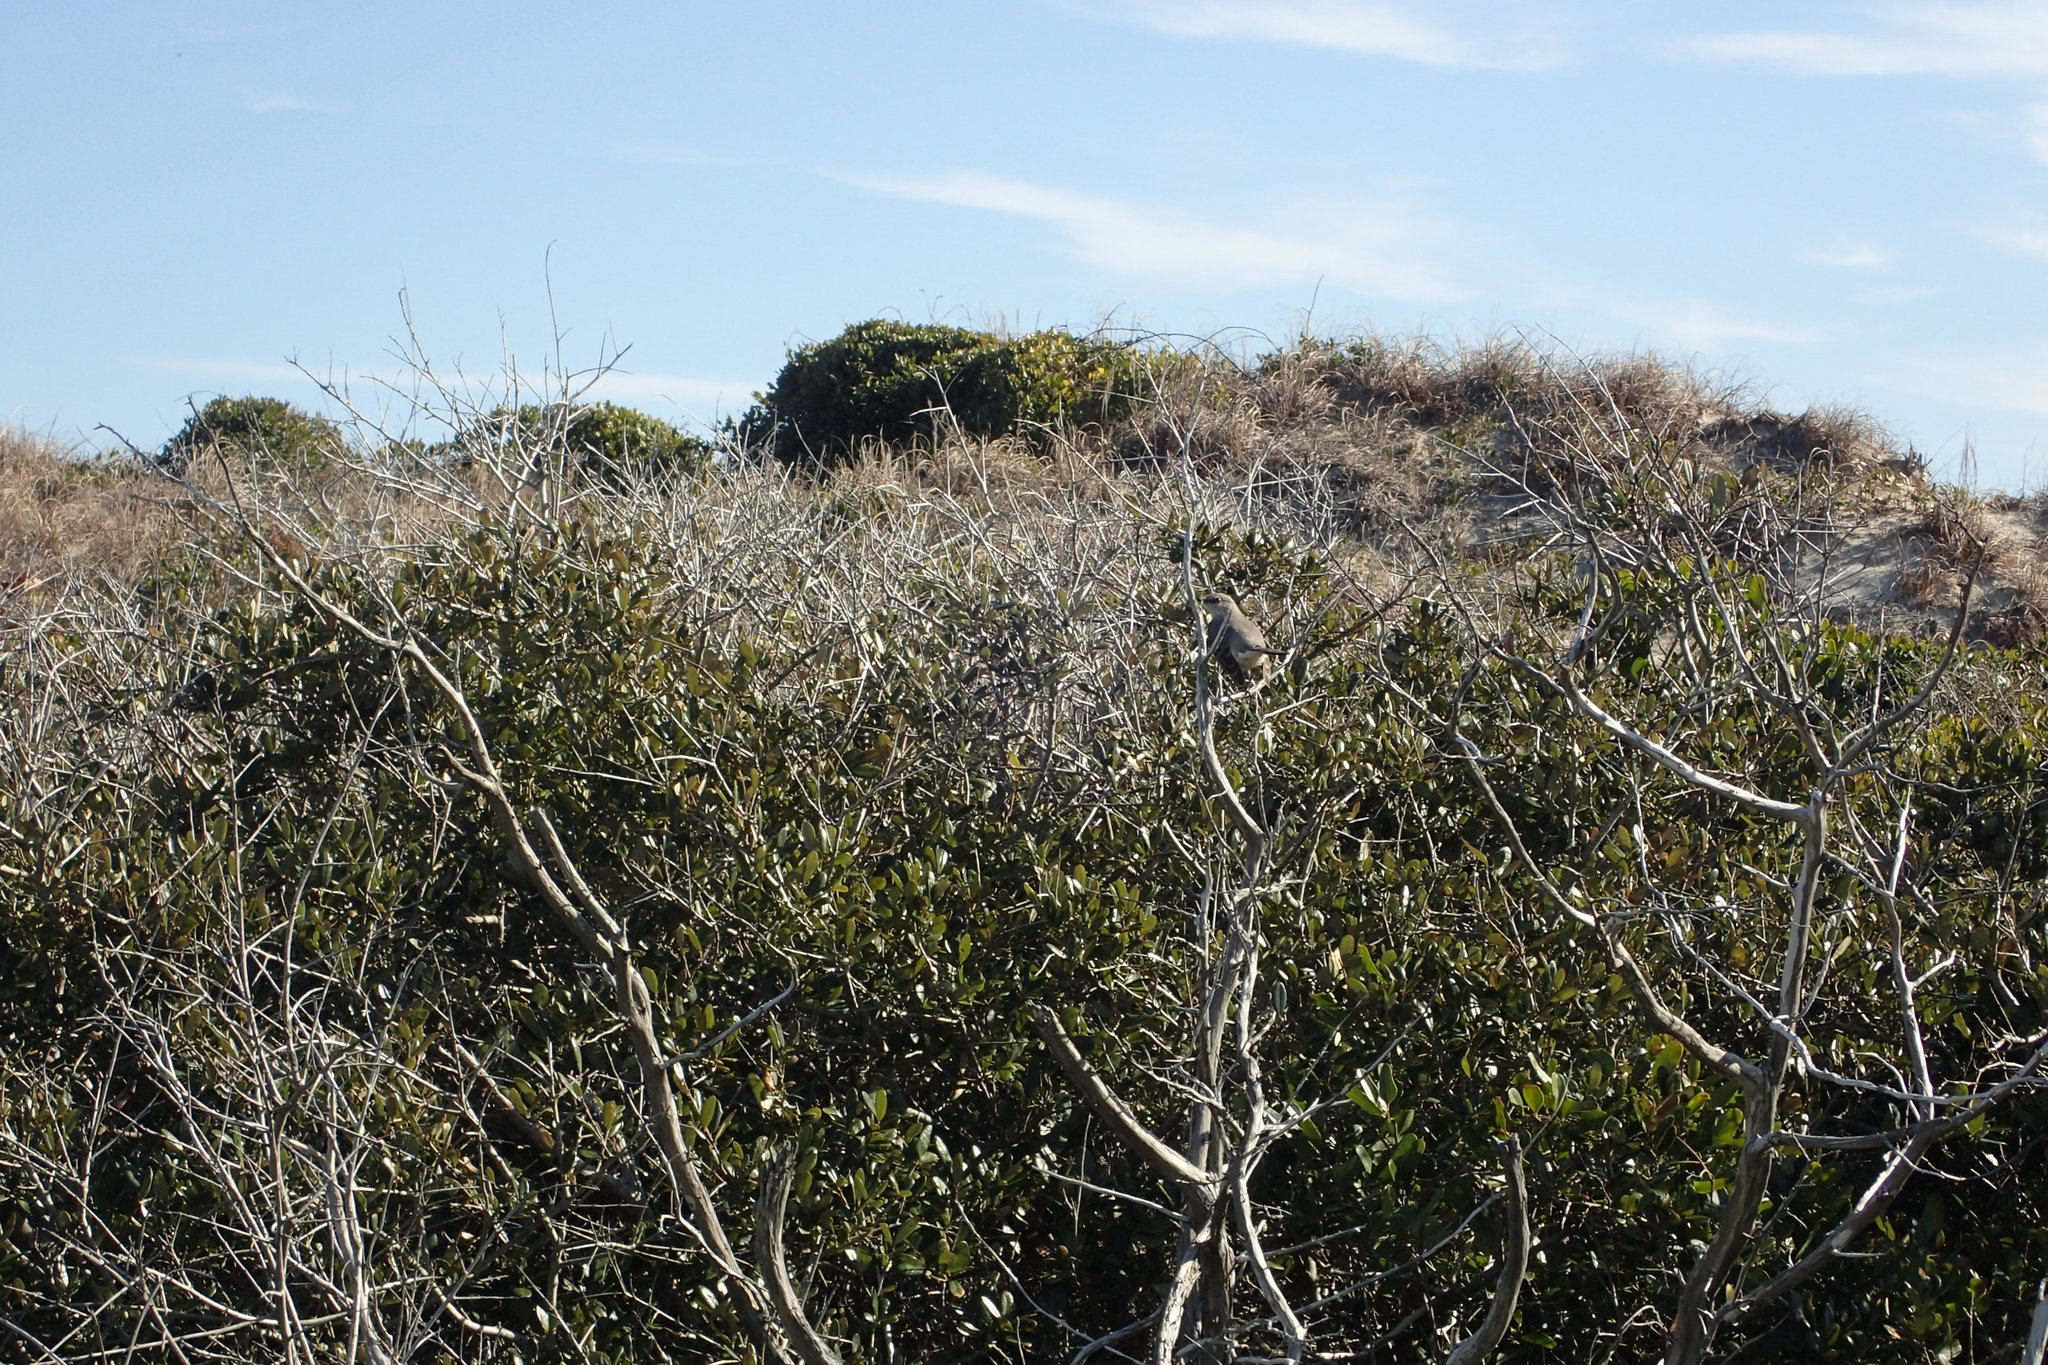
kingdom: Animalia
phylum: Chordata
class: Aves
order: Passeriformes
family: Mimidae
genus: Mimus
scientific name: Mimus polyglottos
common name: Northern mockingbird
